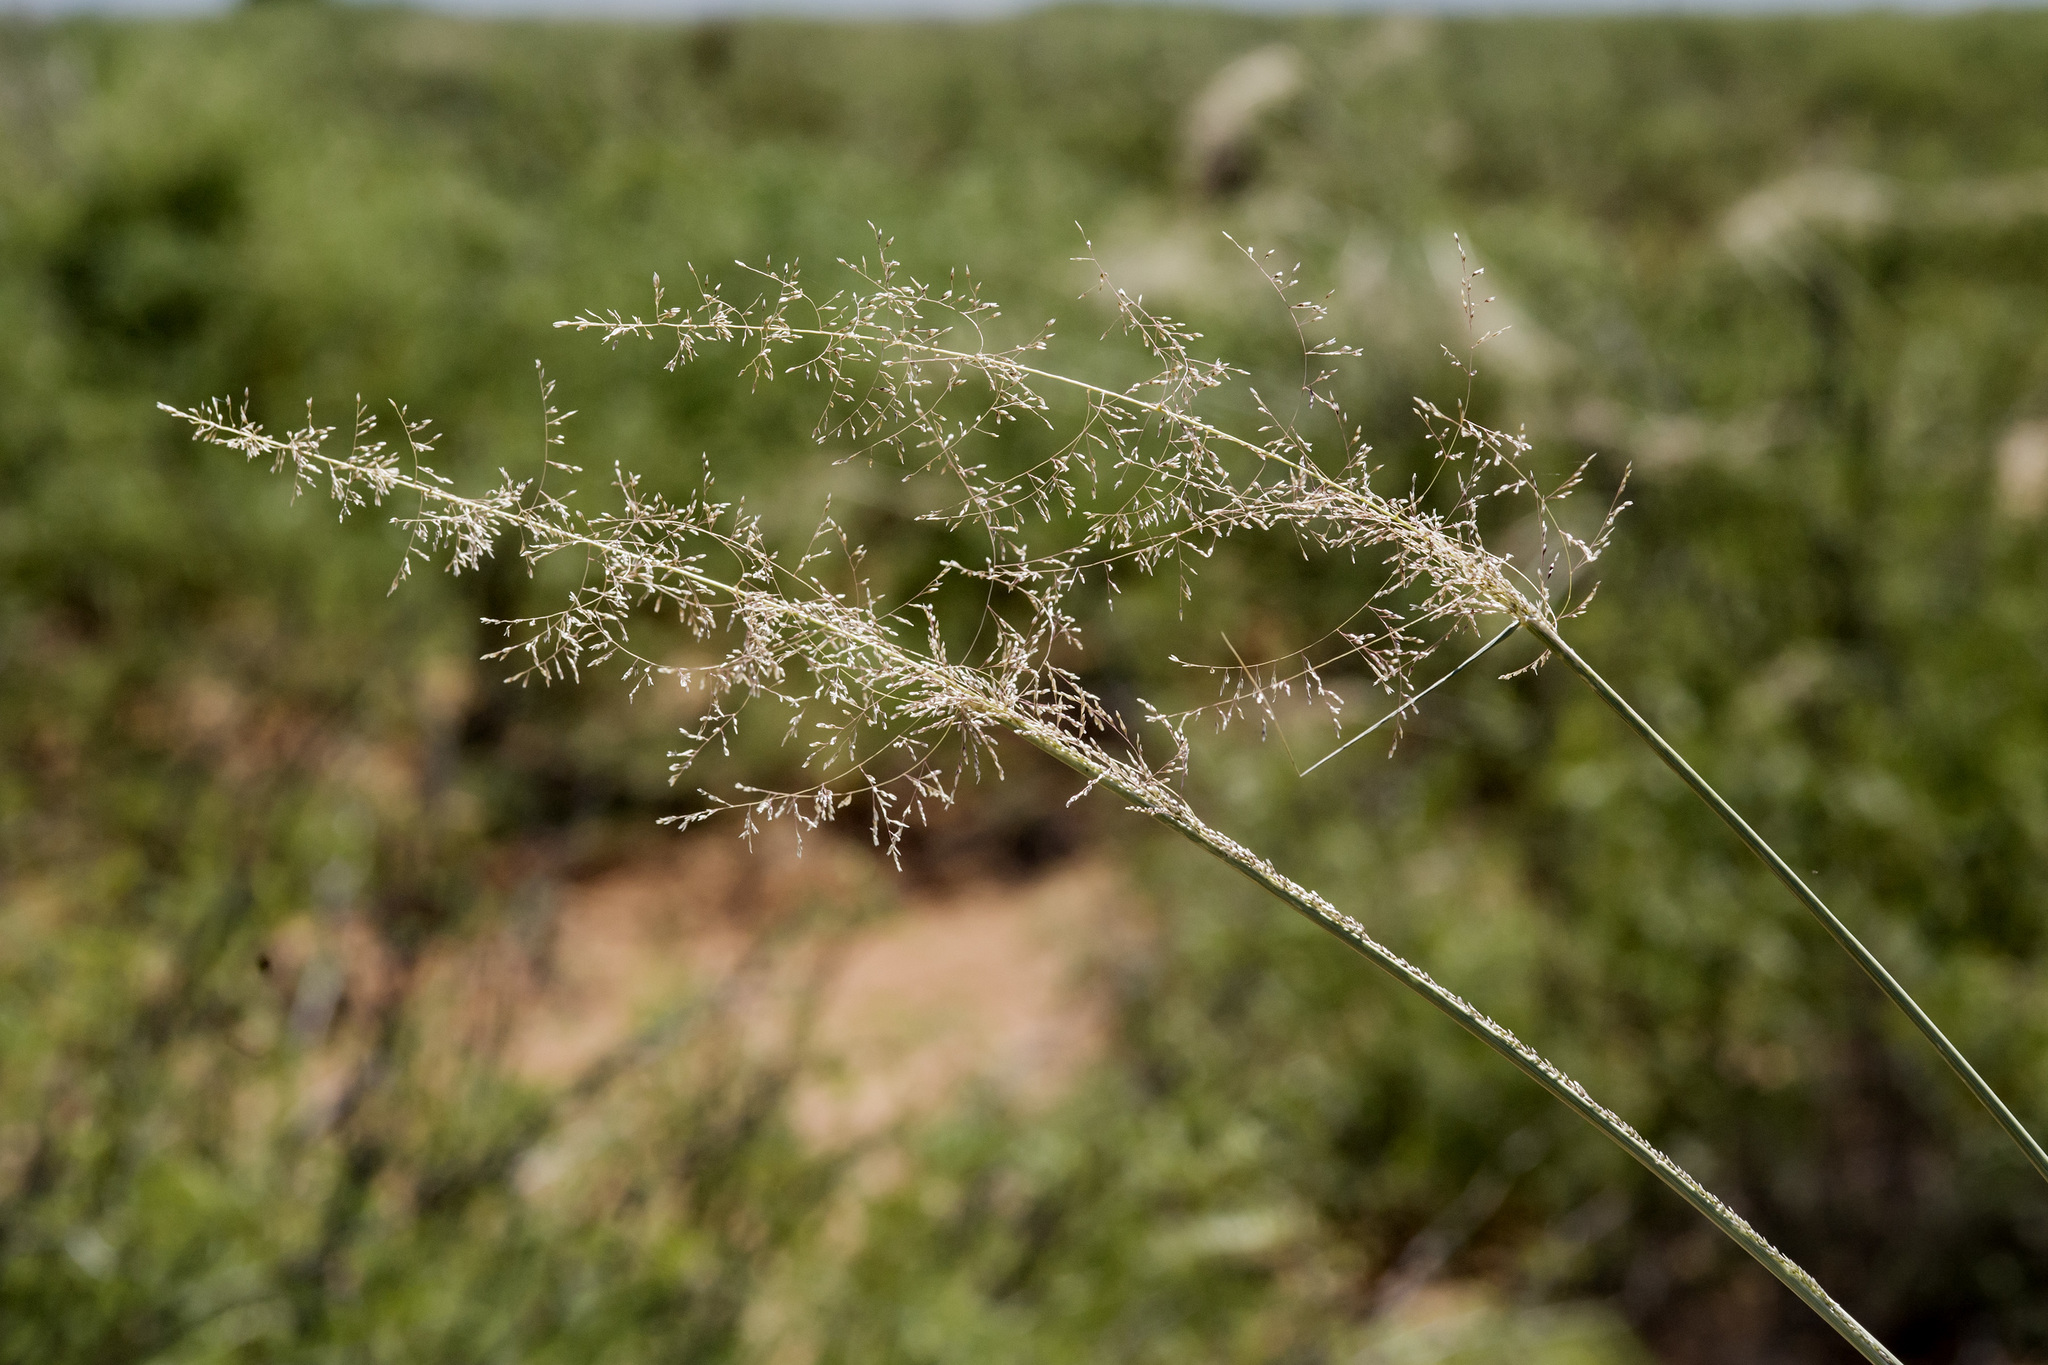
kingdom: Plantae
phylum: Tracheophyta
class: Liliopsida
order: Poales
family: Poaceae
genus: Sporobolus
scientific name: Sporobolus flexuosus
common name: Mesa dropseed
